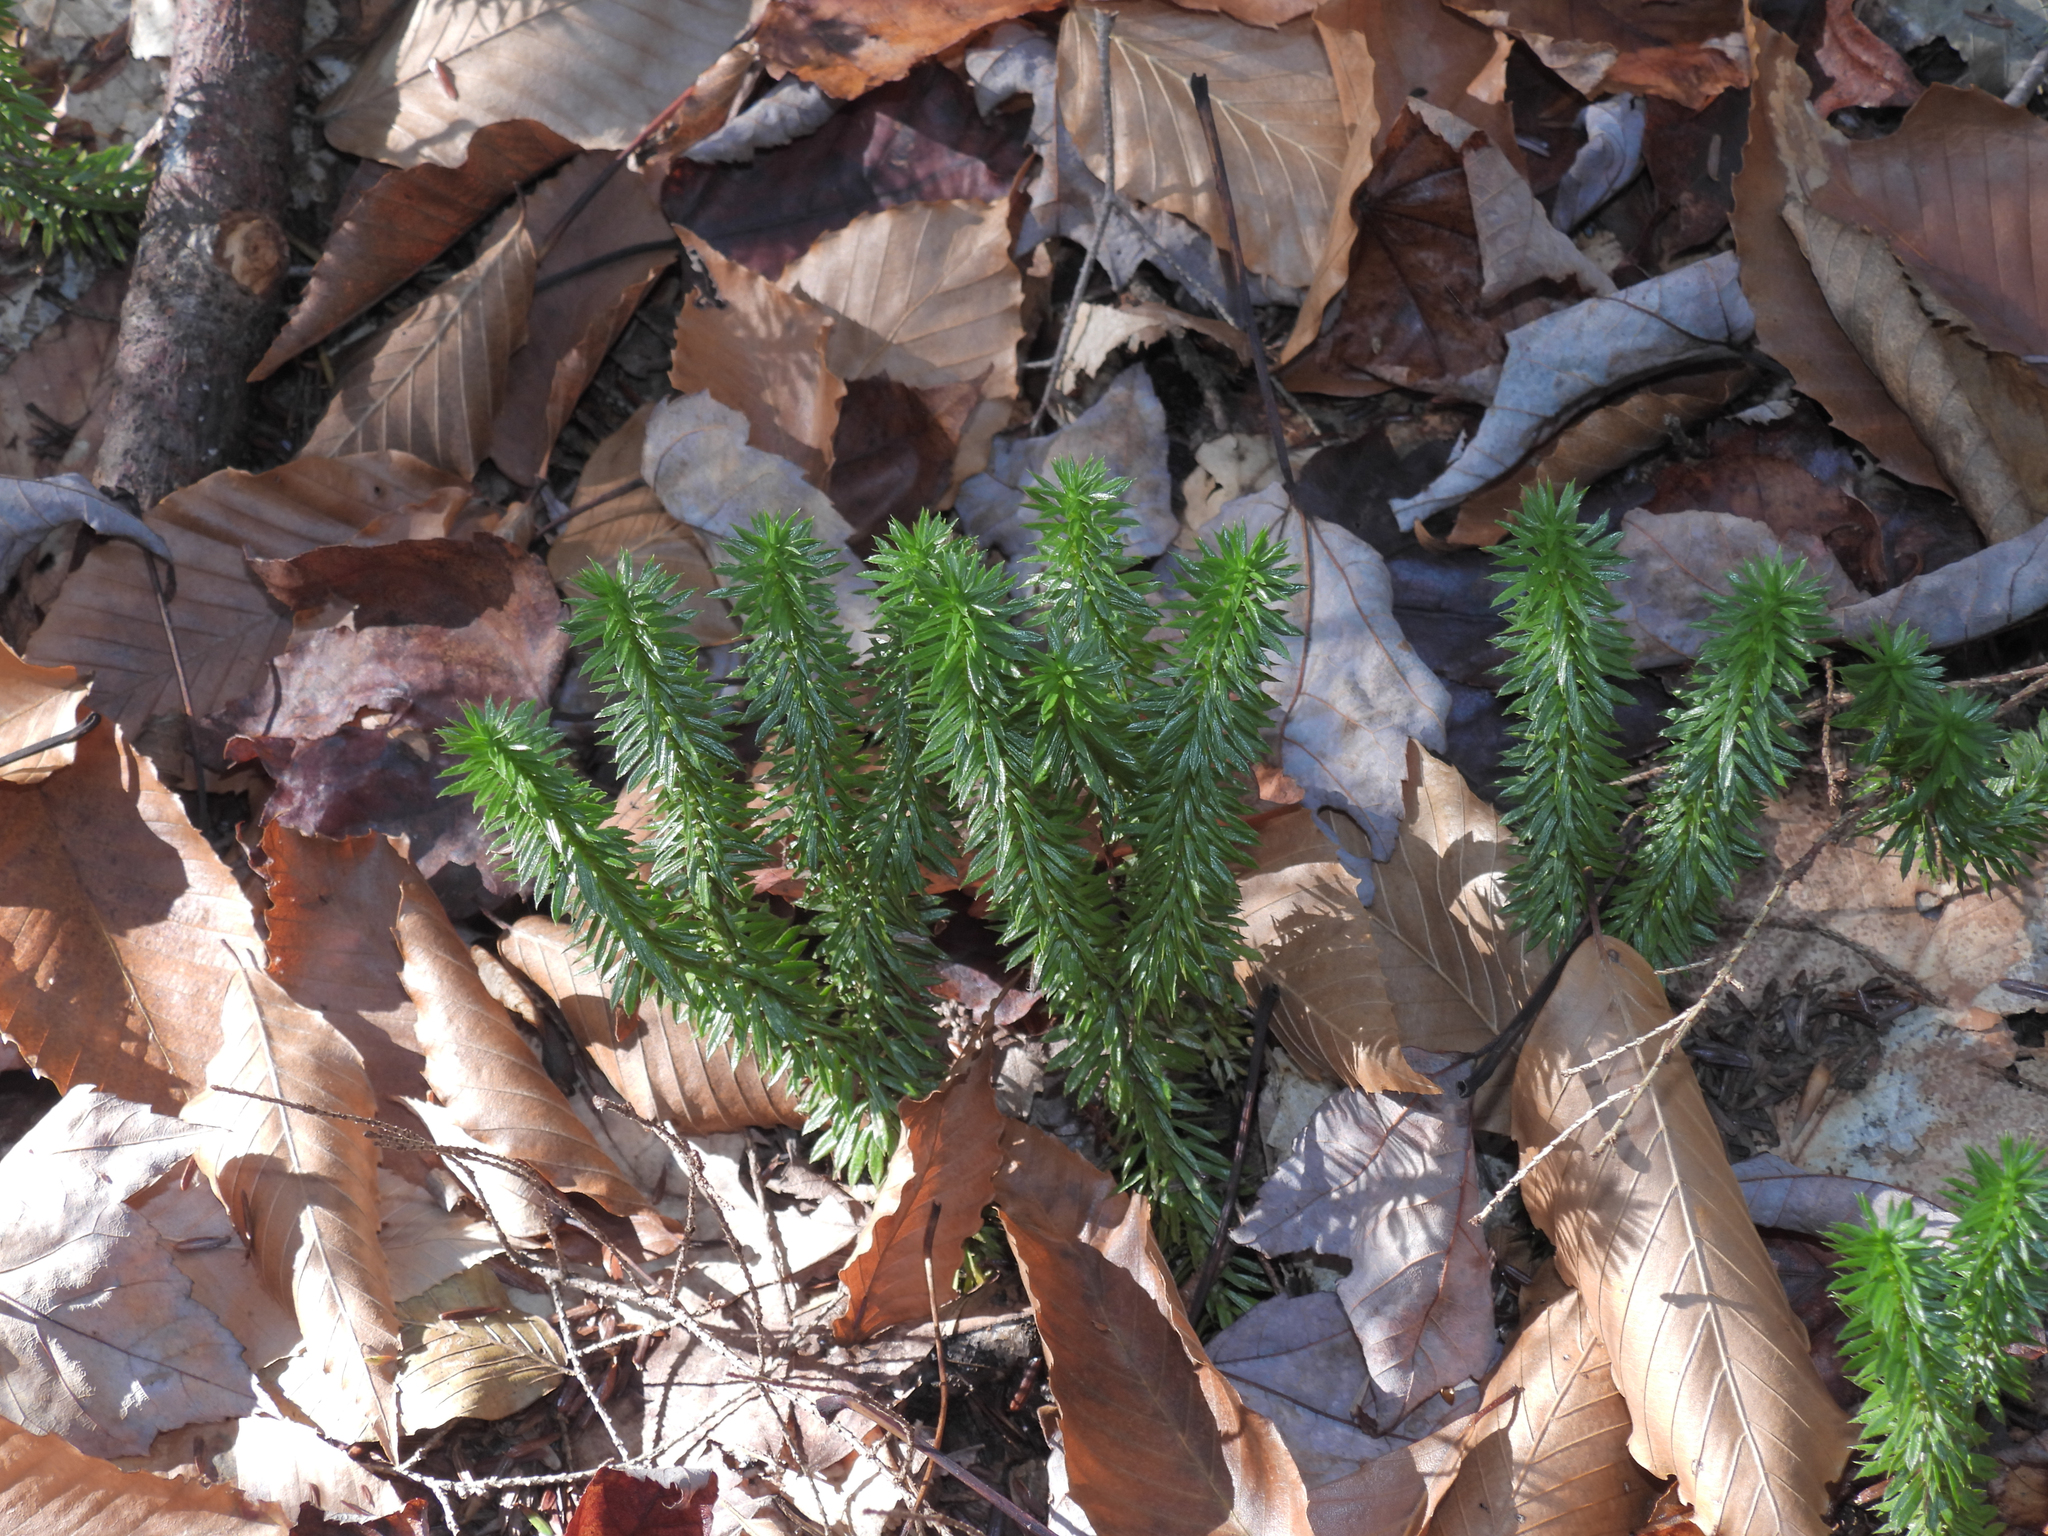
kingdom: Plantae
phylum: Tracheophyta
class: Lycopodiopsida
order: Lycopodiales
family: Lycopodiaceae
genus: Huperzia
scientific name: Huperzia lucidula
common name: Shining clubmoss
